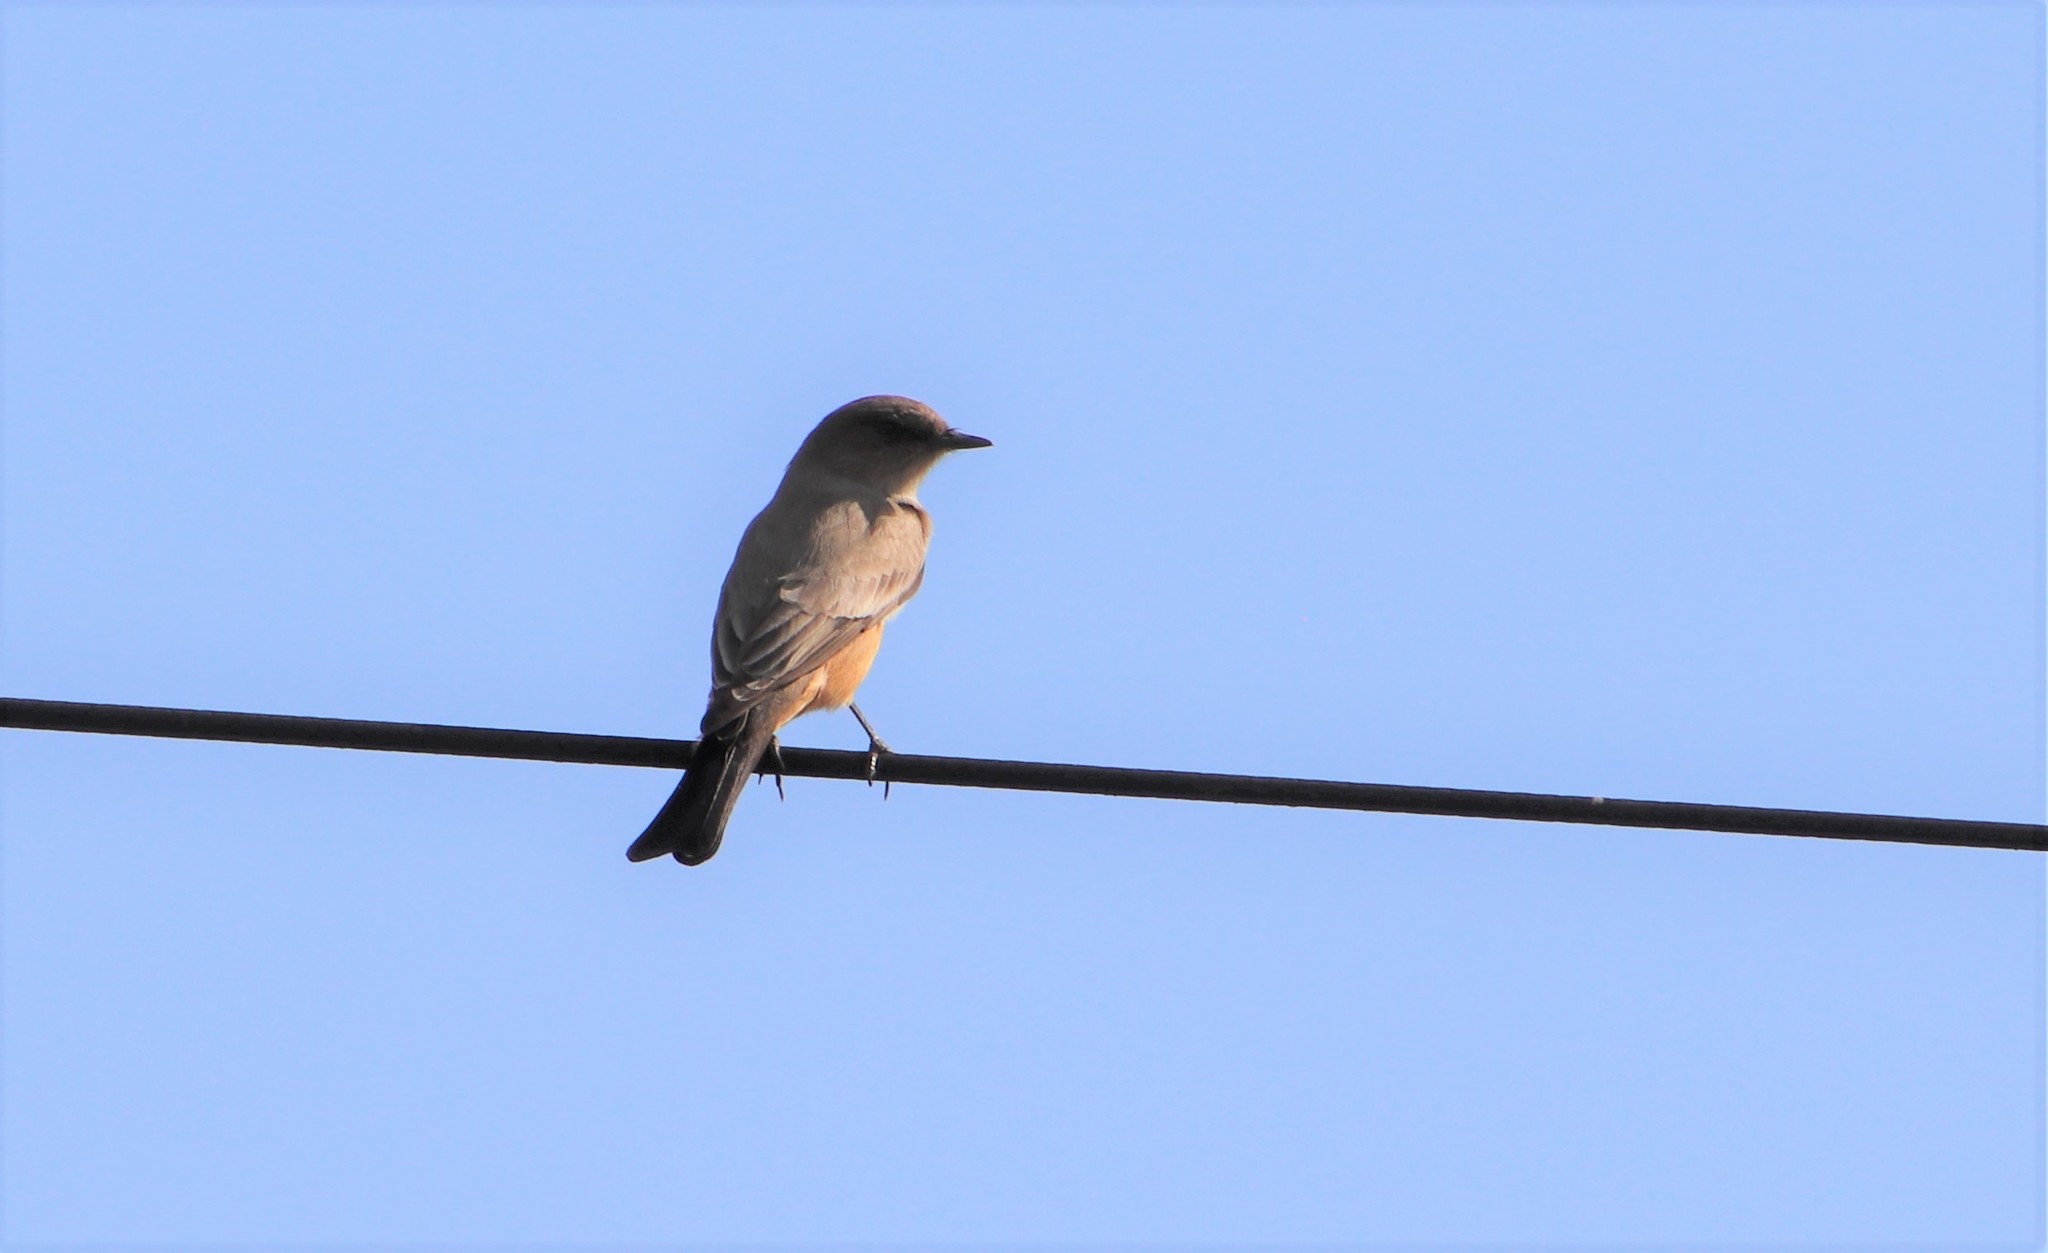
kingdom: Animalia
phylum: Chordata
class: Aves
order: Passeriformes
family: Tyrannidae
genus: Sayornis
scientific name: Sayornis saya
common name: Say's phoebe
